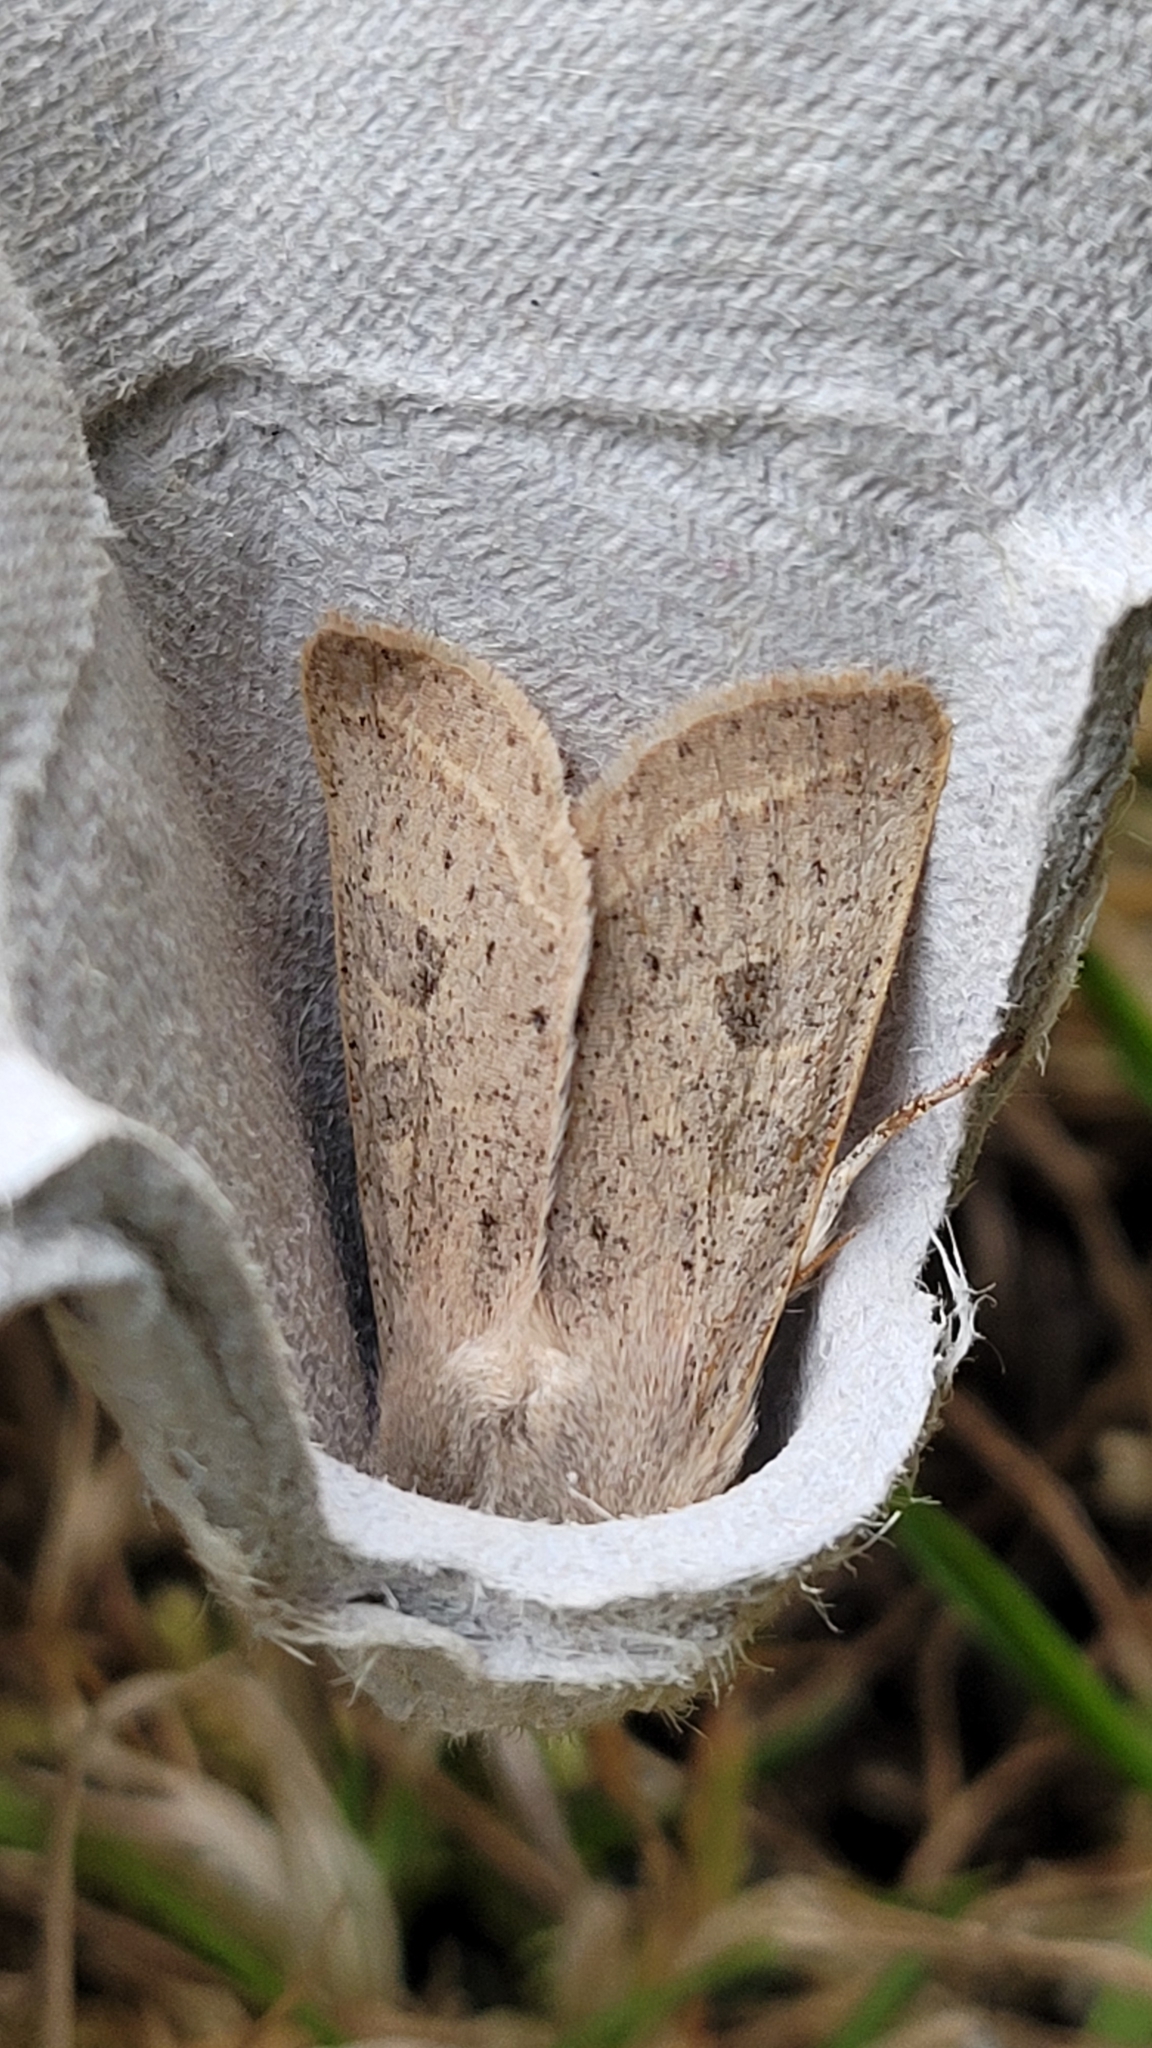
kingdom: Animalia
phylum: Arthropoda
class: Insecta
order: Lepidoptera
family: Noctuidae
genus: Orthosia
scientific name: Orthosia gracilis
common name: Powdered quaker
